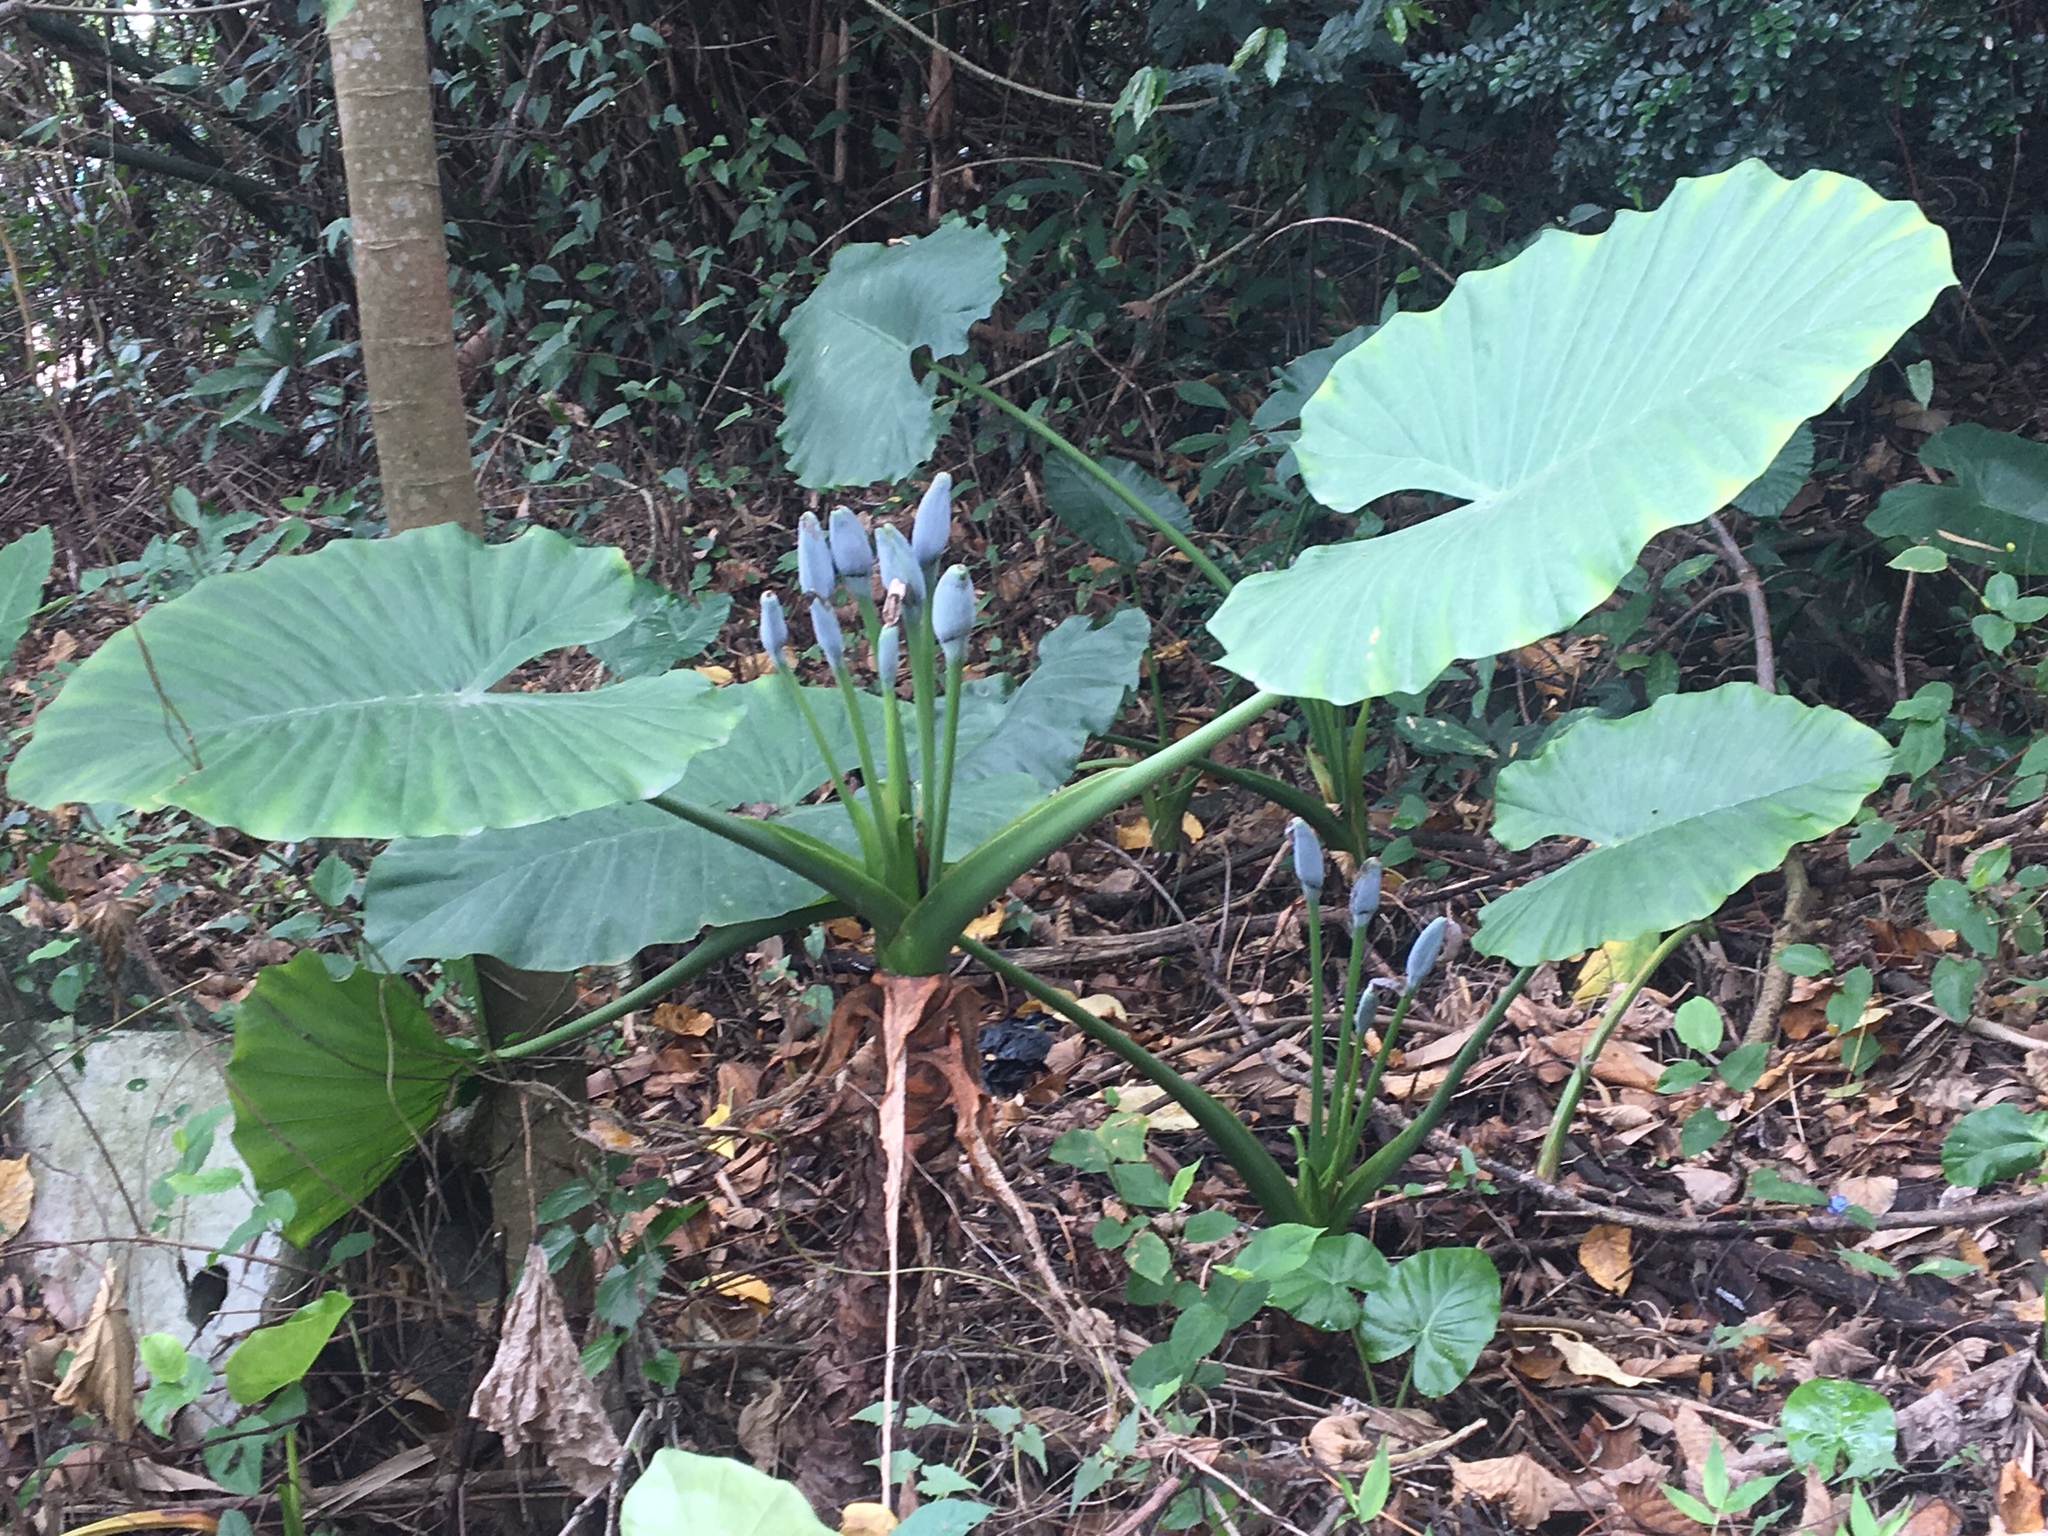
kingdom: Plantae
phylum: Tracheophyta
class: Liliopsida
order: Alismatales
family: Araceae
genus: Alocasia
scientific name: Alocasia odora
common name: Asian taro
